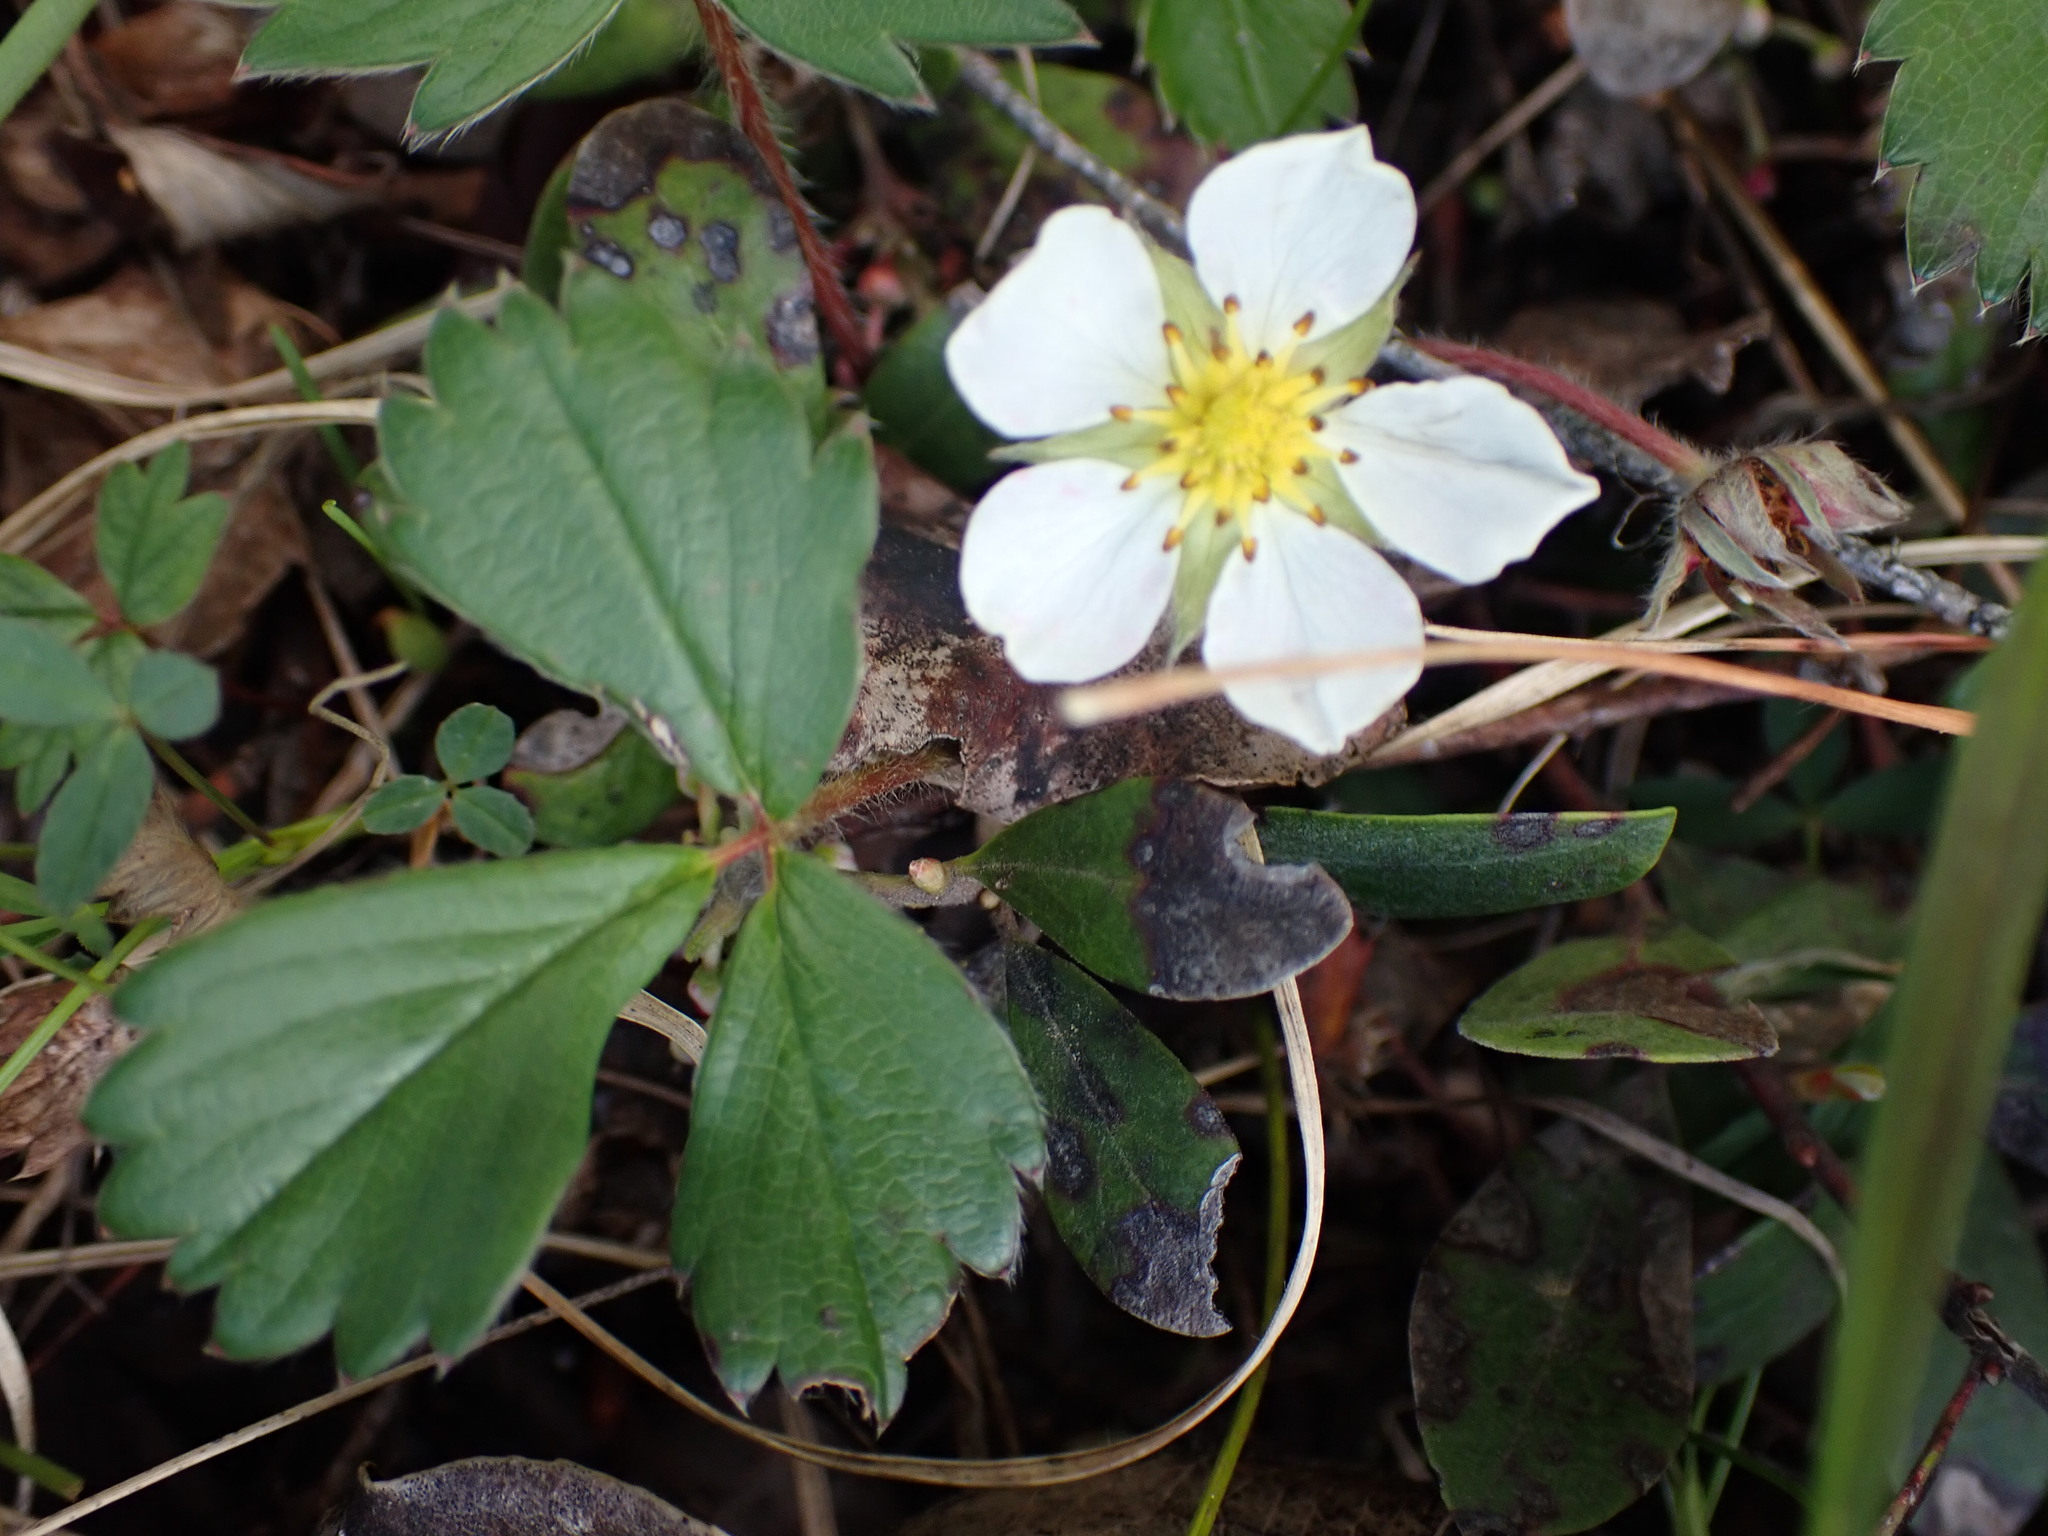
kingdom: Plantae
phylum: Tracheophyta
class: Magnoliopsida
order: Rosales
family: Rosaceae
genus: Fragaria
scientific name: Fragaria chiloensis
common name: Beach strawberry
